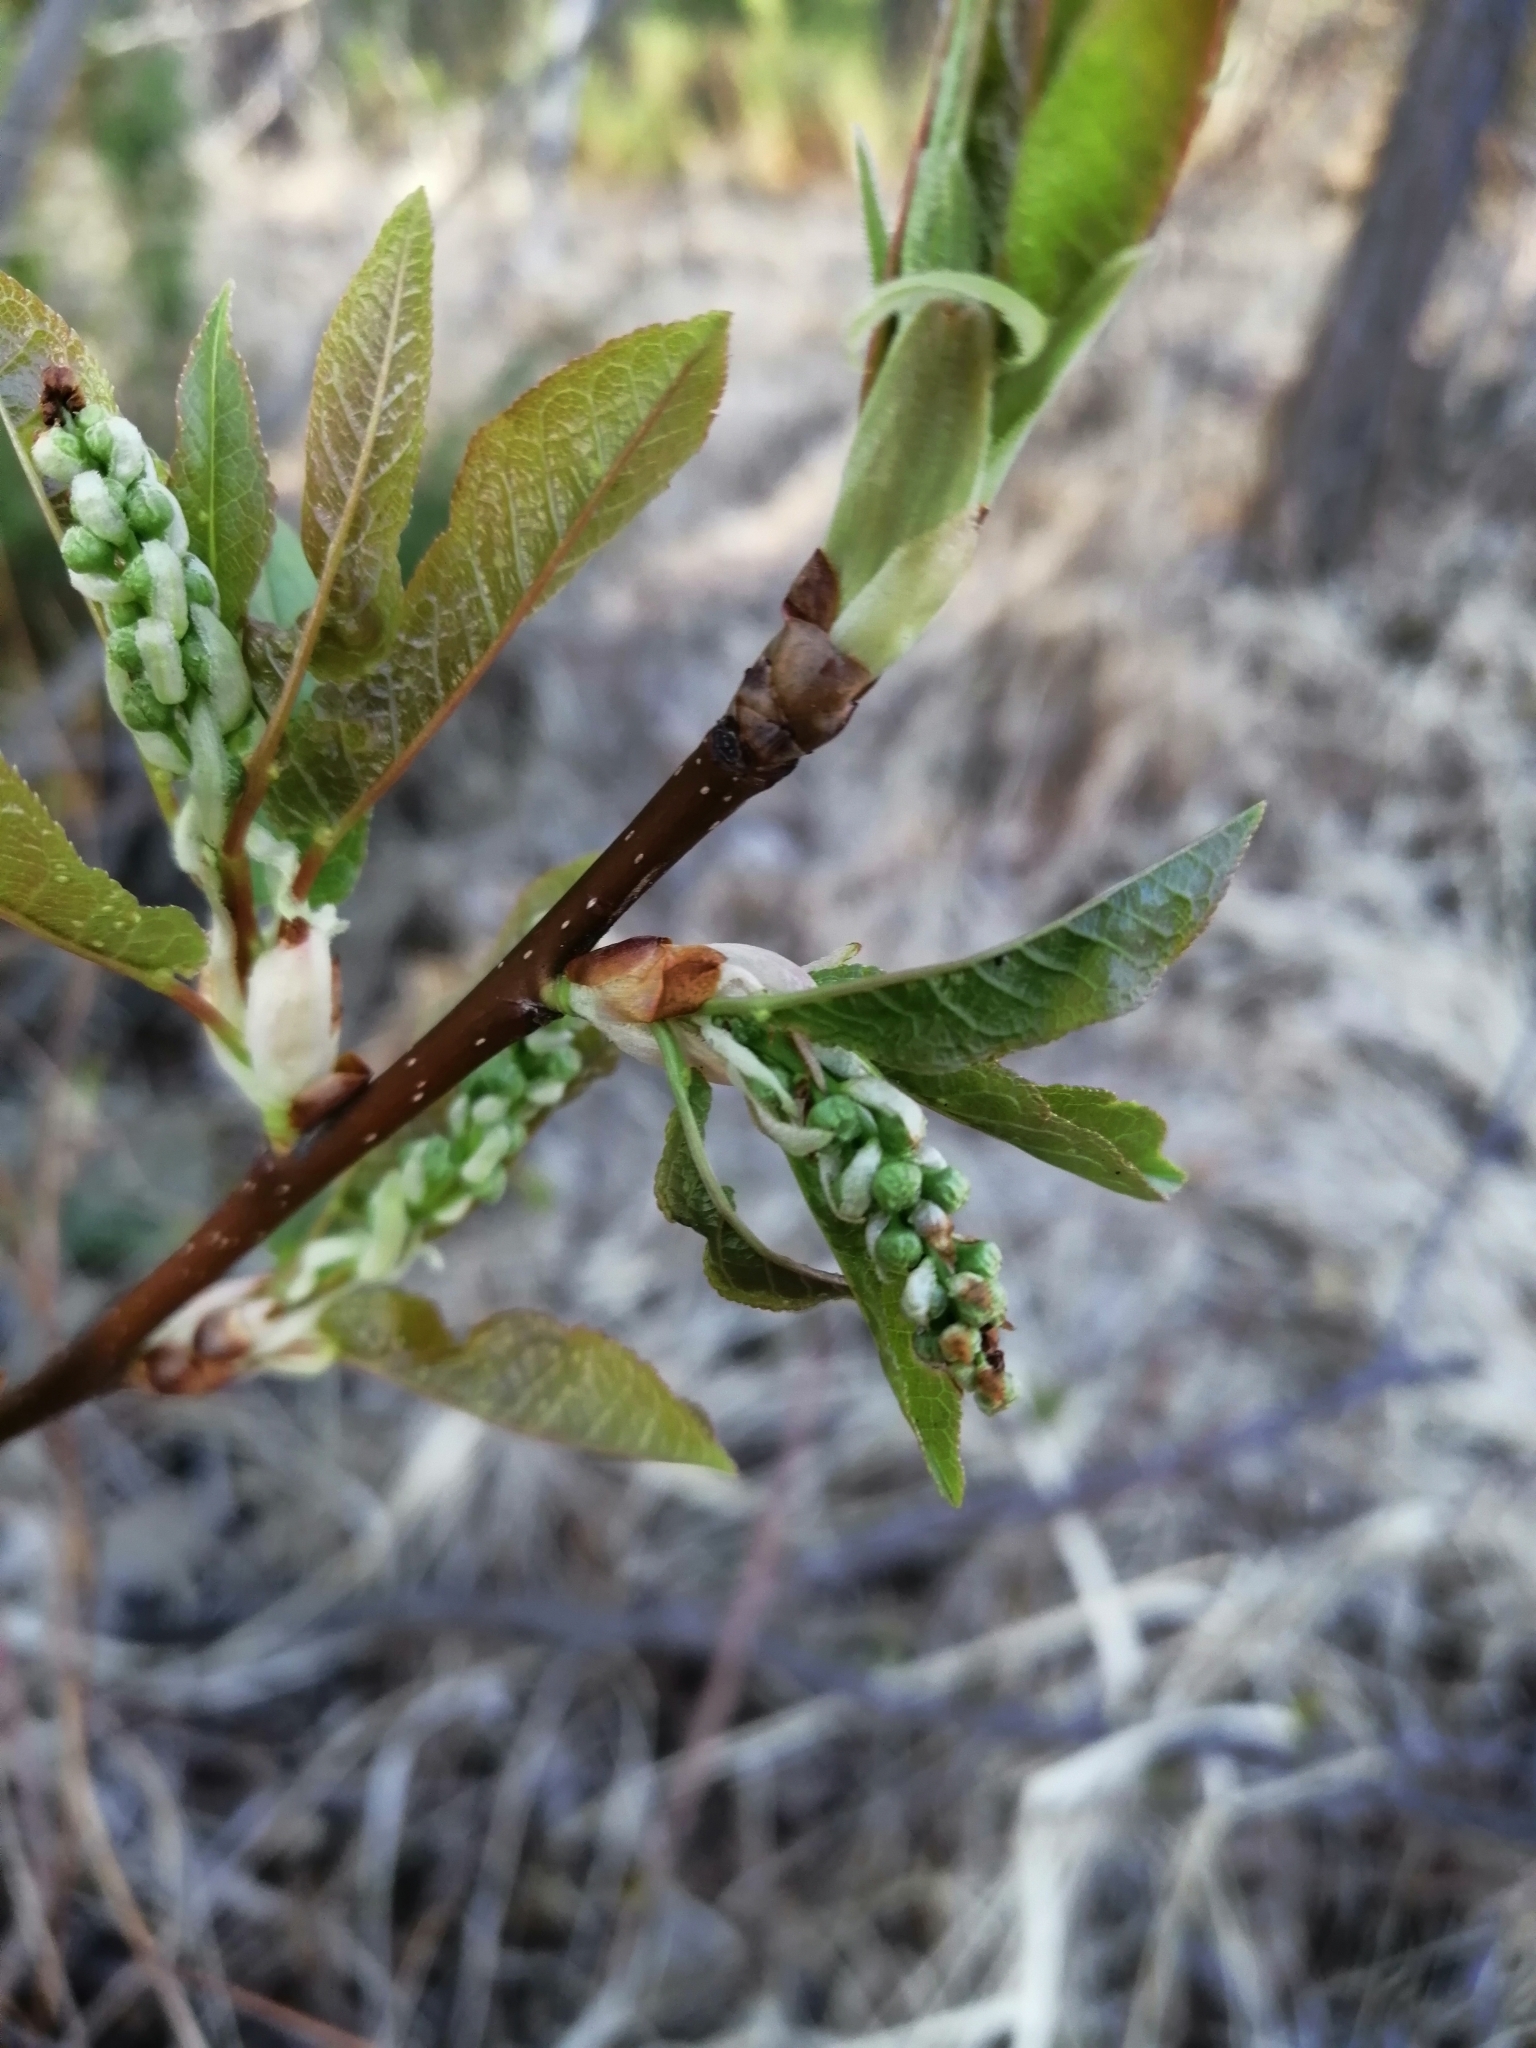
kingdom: Plantae
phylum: Tracheophyta
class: Magnoliopsida
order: Rosales
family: Rosaceae
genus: Prunus
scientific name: Prunus padus
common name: Bird cherry
